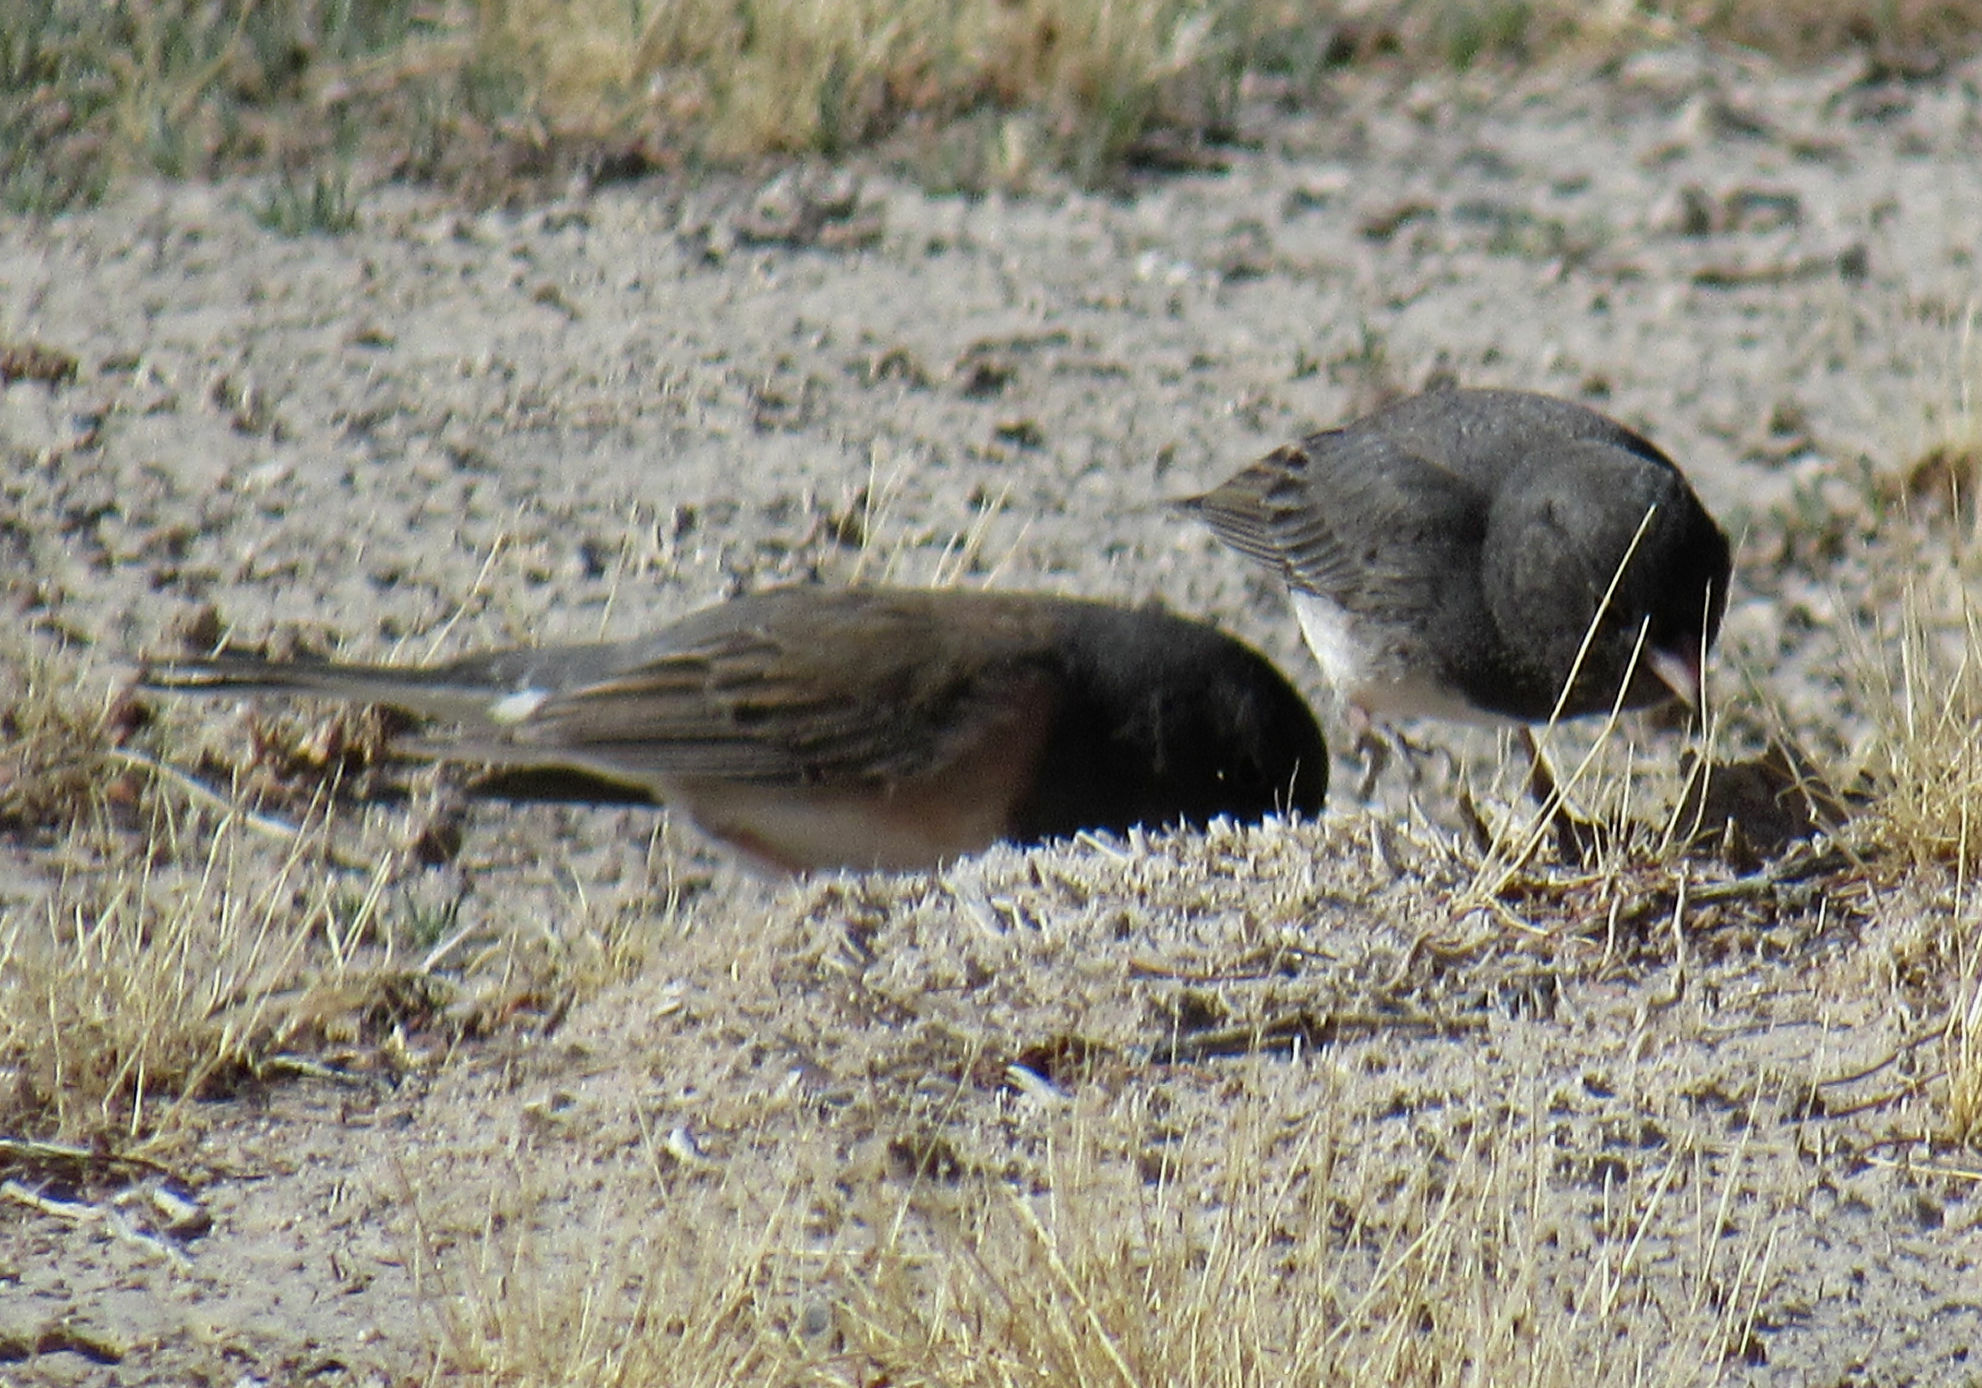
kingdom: Animalia
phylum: Chordata
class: Aves
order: Passeriformes
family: Passerellidae
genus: Junco
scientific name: Junco hyemalis
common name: Dark-eyed junco
